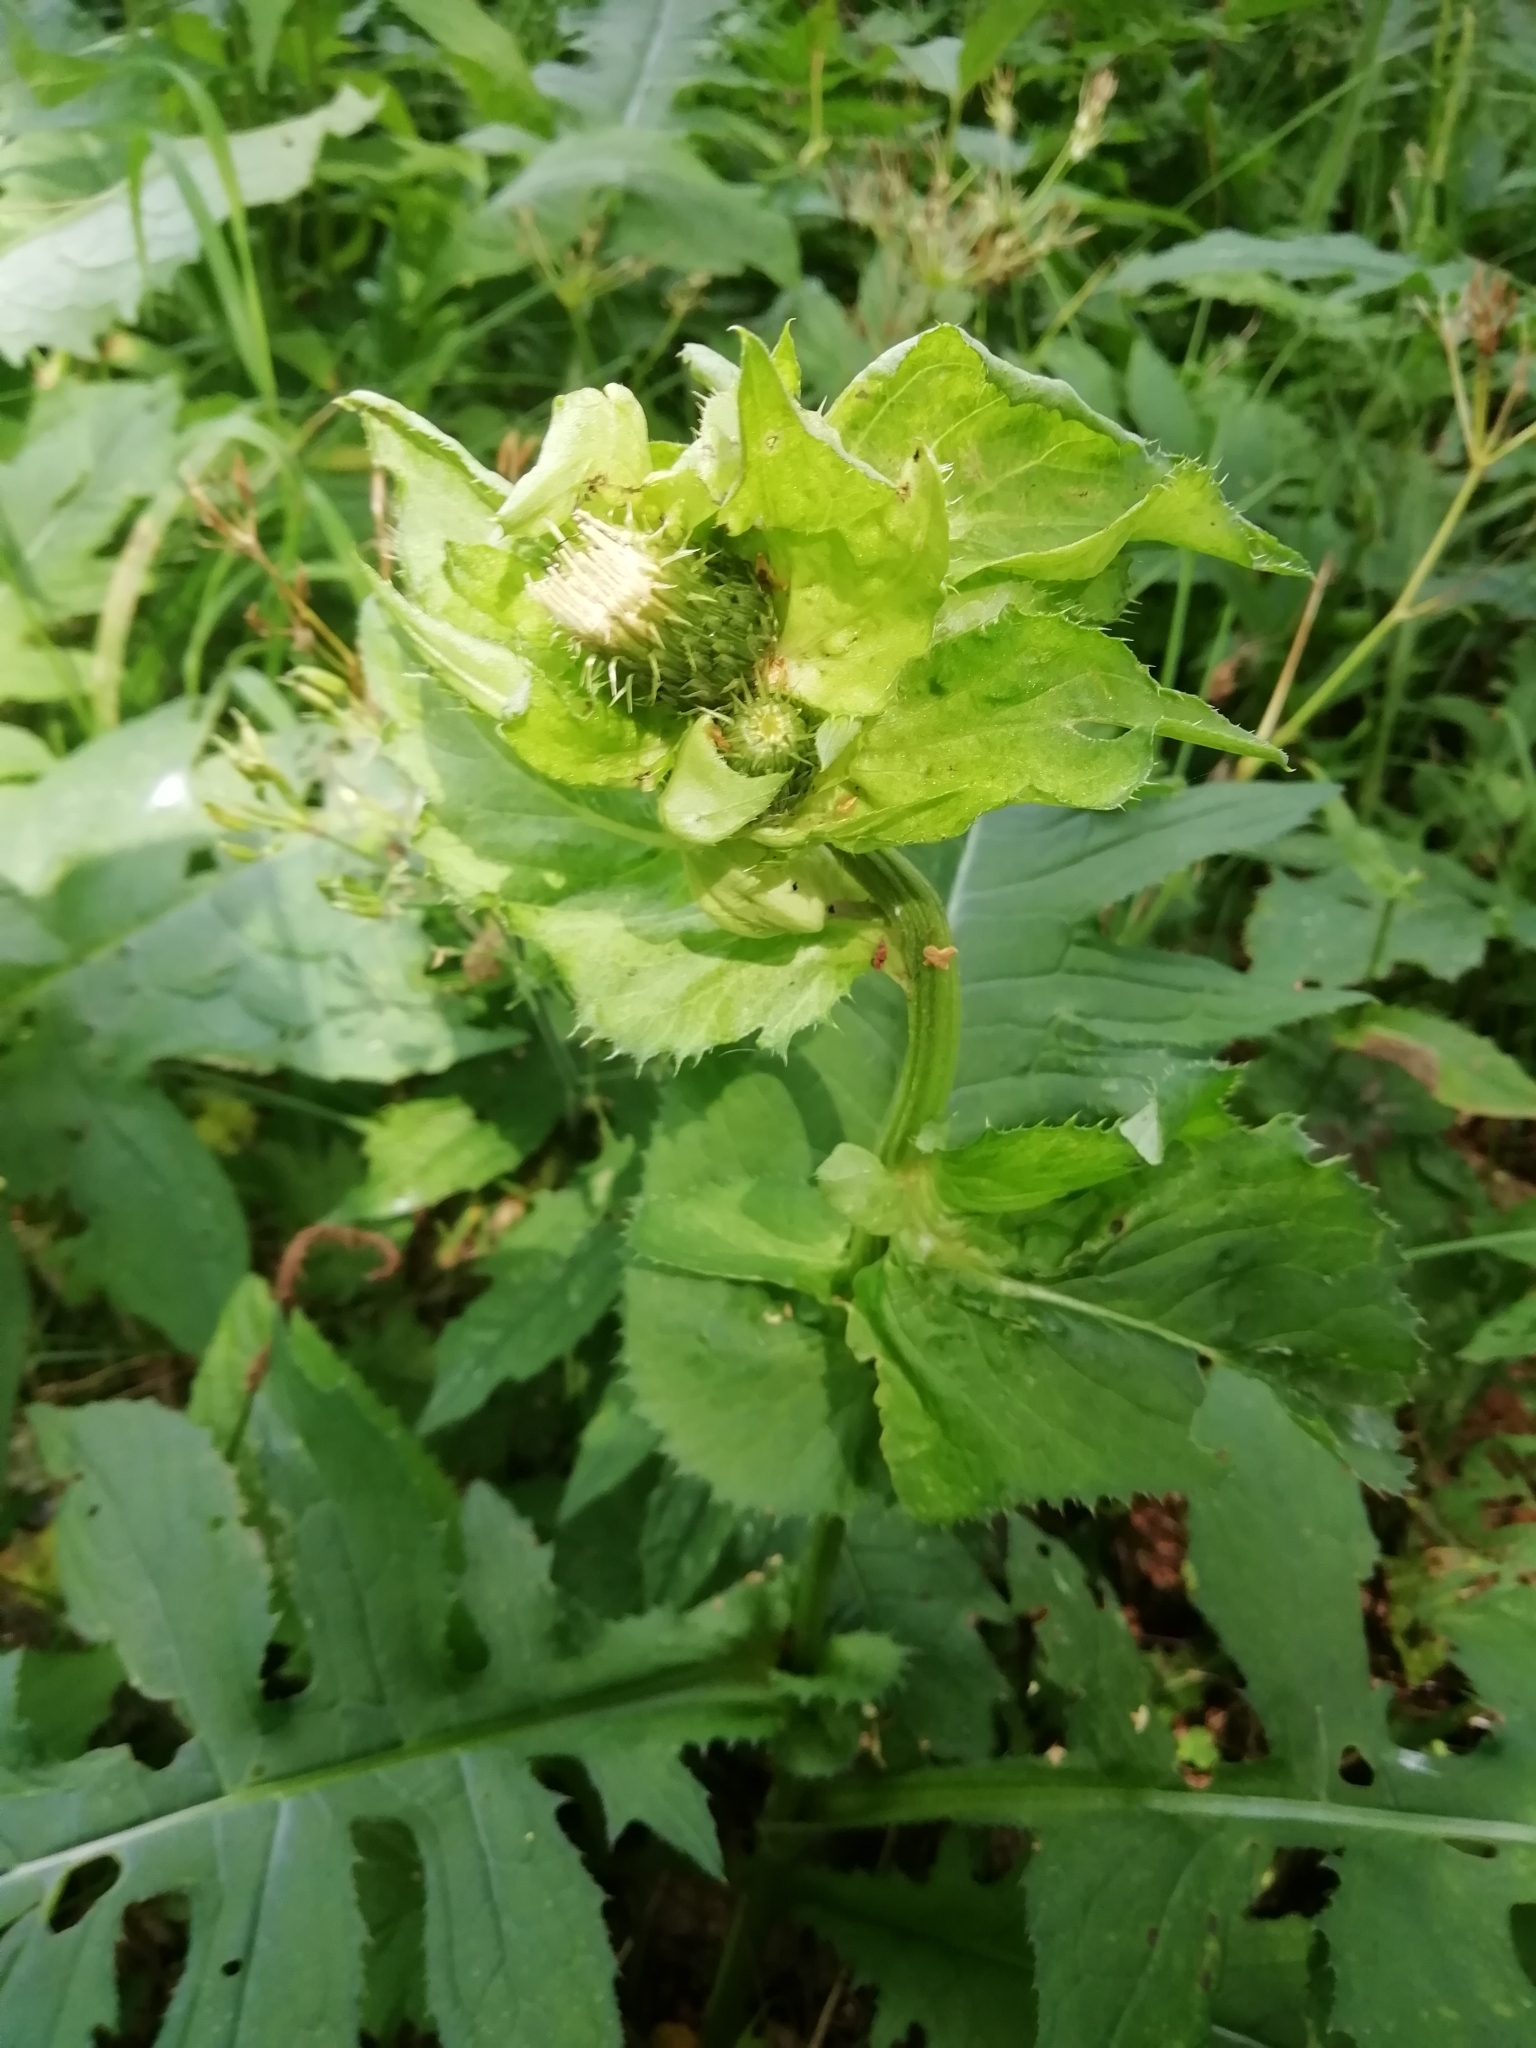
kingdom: Plantae
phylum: Tracheophyta
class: Magnoliopsida
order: Asterales
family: Asteraceae
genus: Cirsium
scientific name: Cirsium oleraceum
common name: Cabbage thistle
